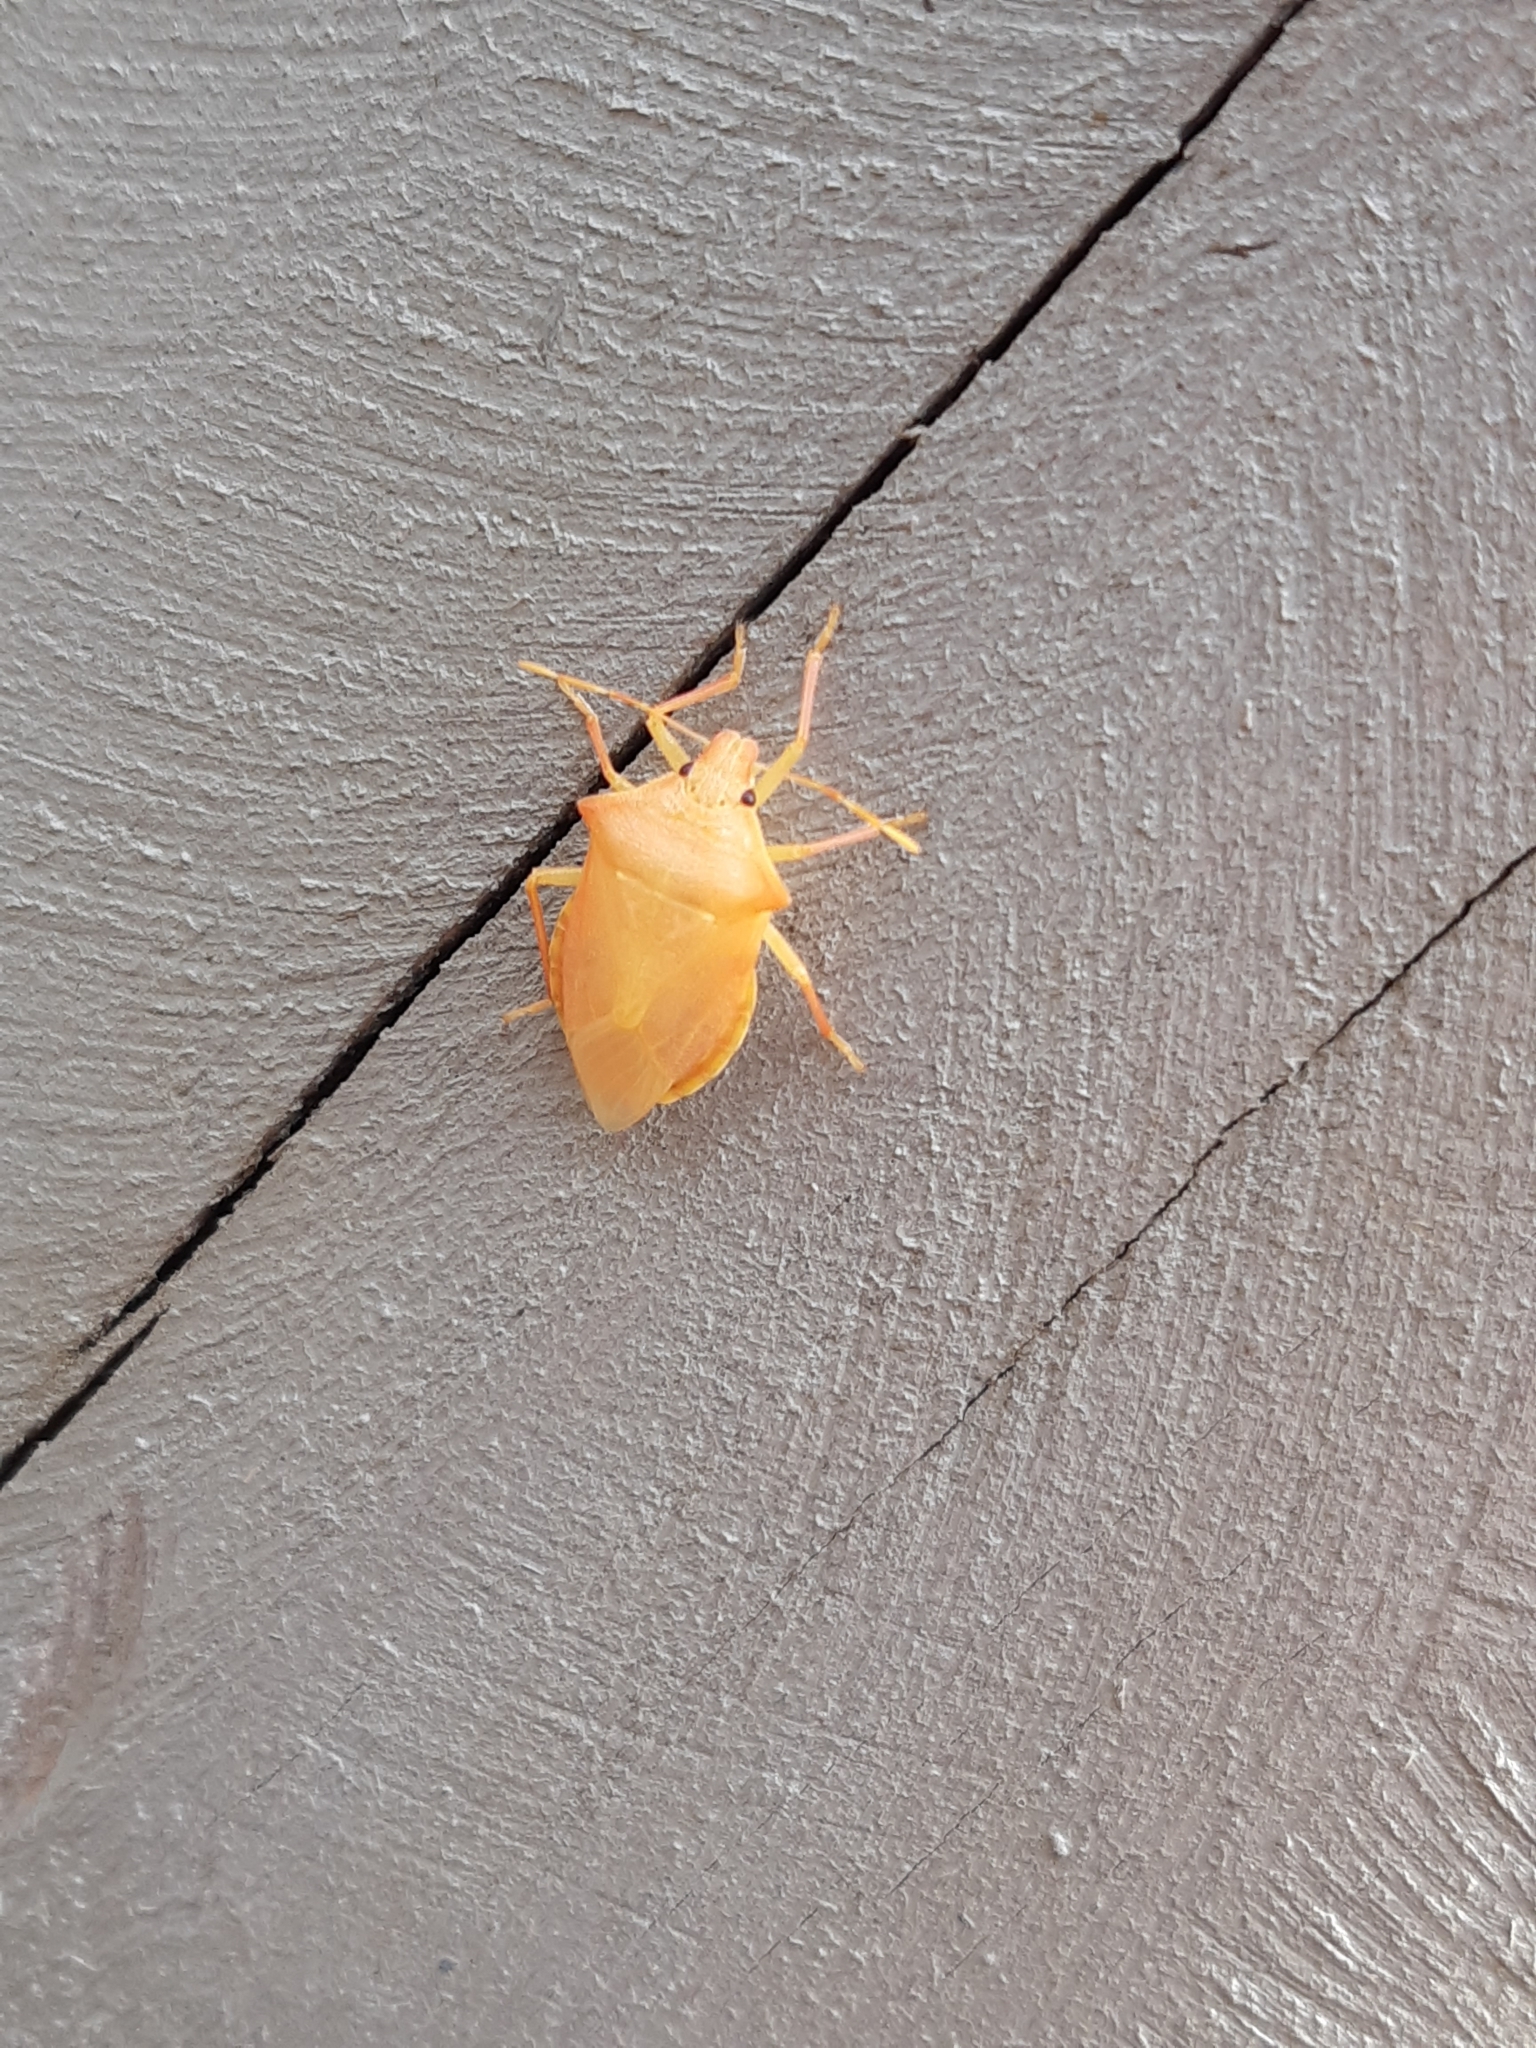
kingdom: Animalia
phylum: Arthropoda
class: Insecta
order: Hemiptera
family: Pentatomidae
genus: Arma
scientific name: Arma custos
